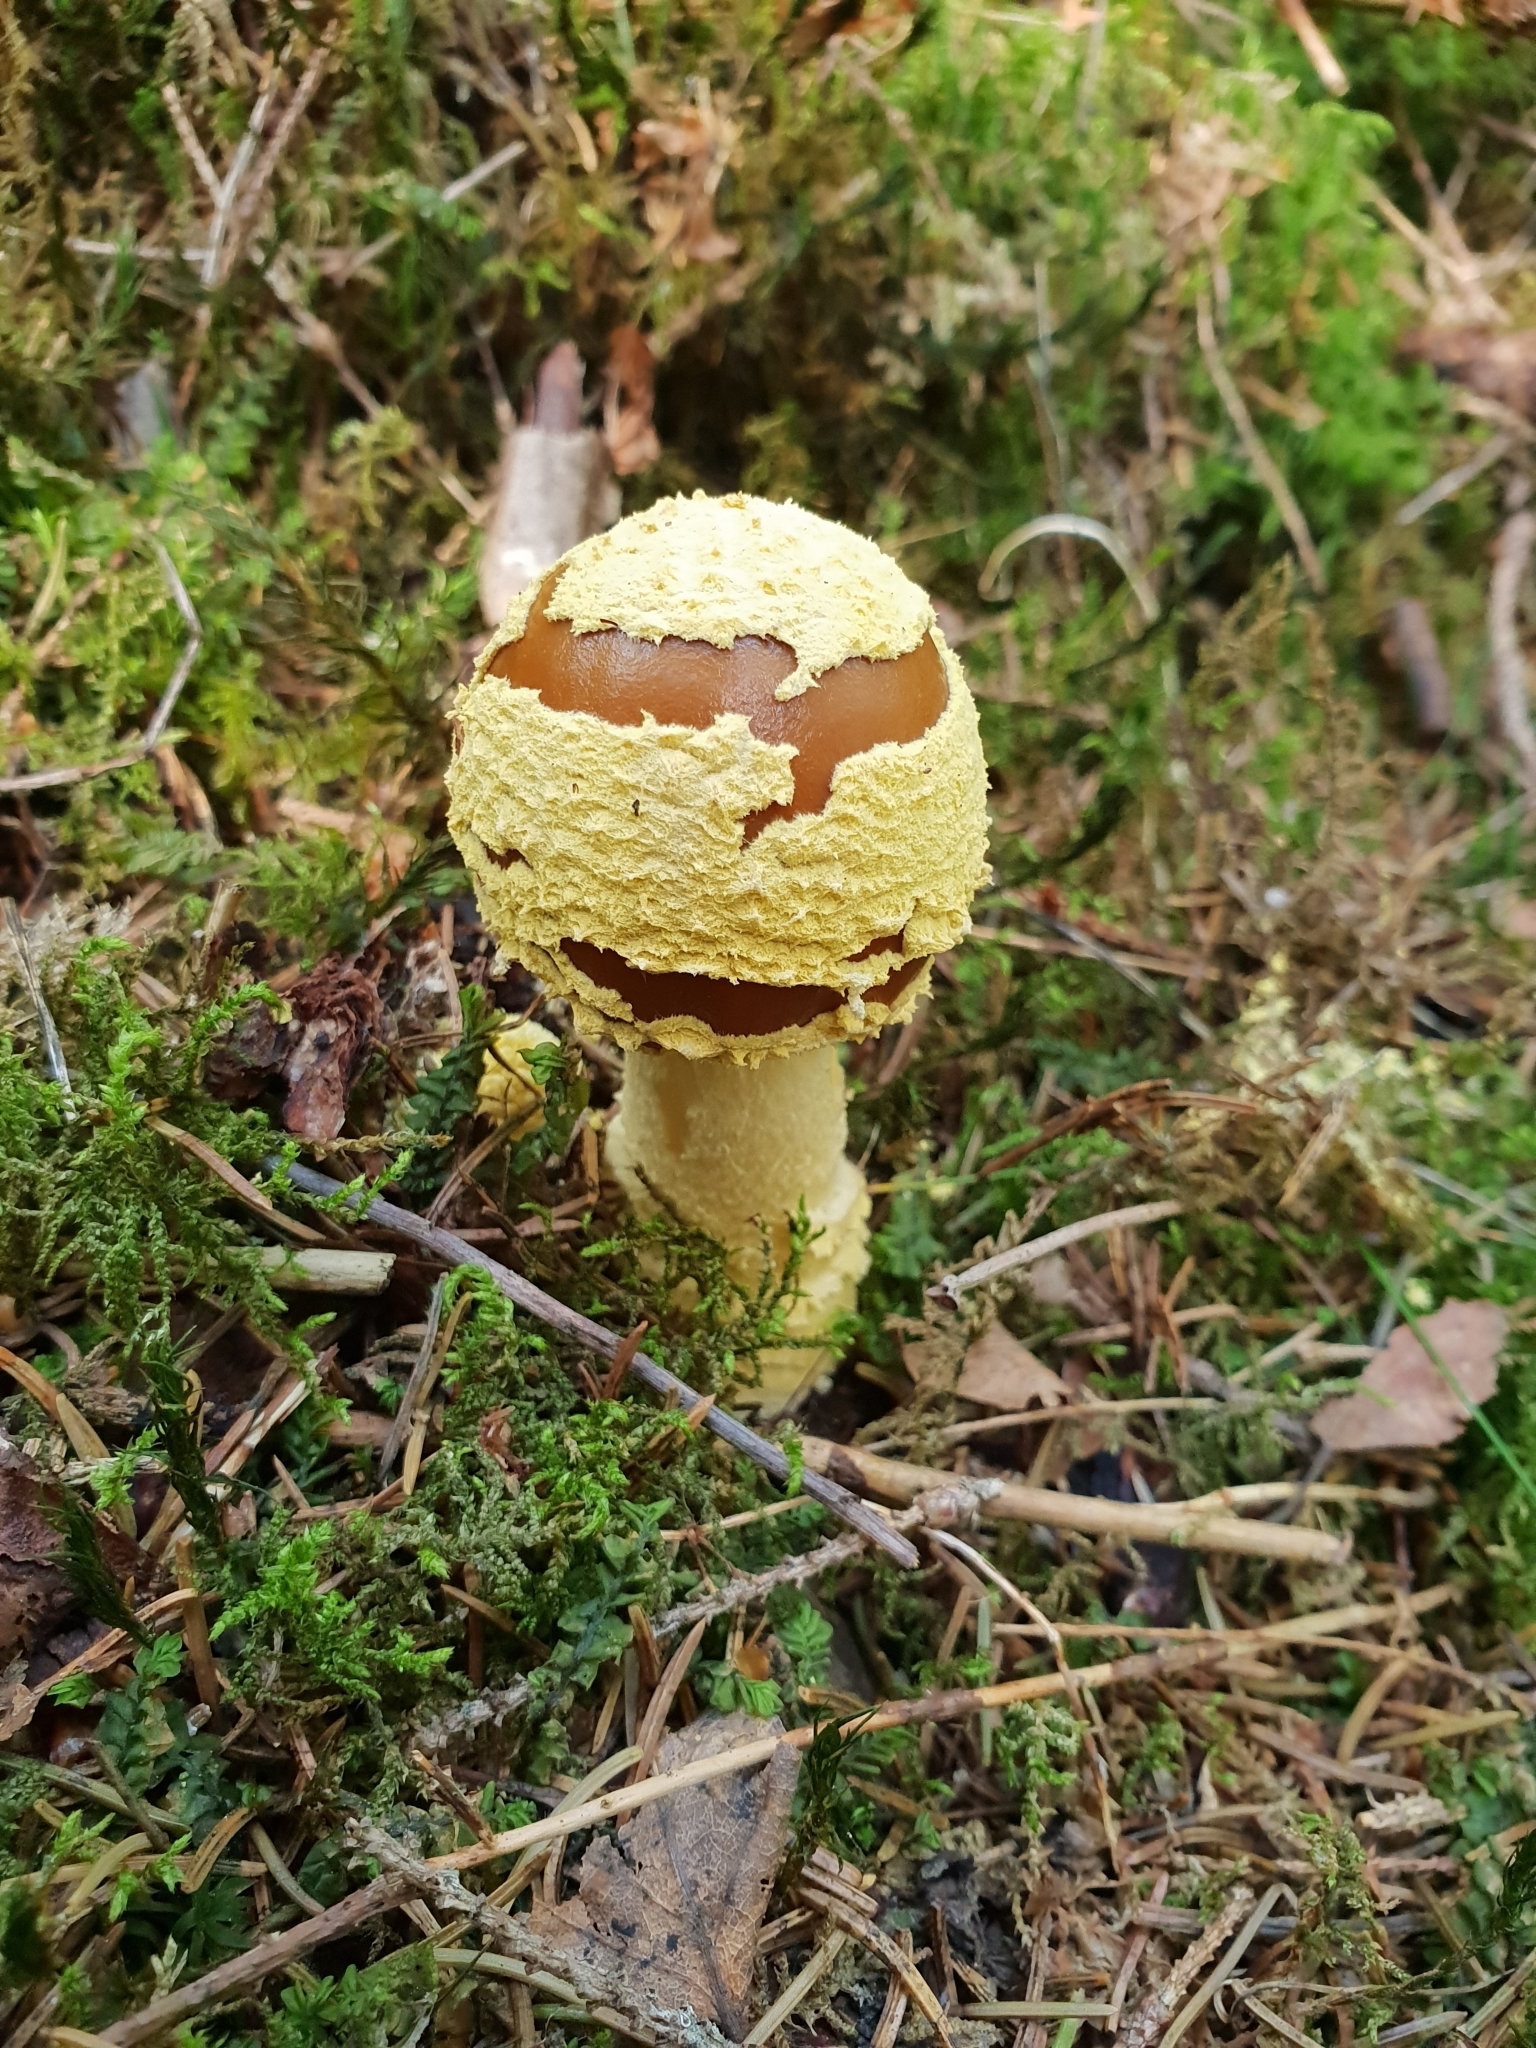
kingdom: Fungi
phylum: Basidiomycota
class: Agaricomycetes
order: Agaricales
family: Amanitaceae
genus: Amanita
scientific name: Amanita regalis
